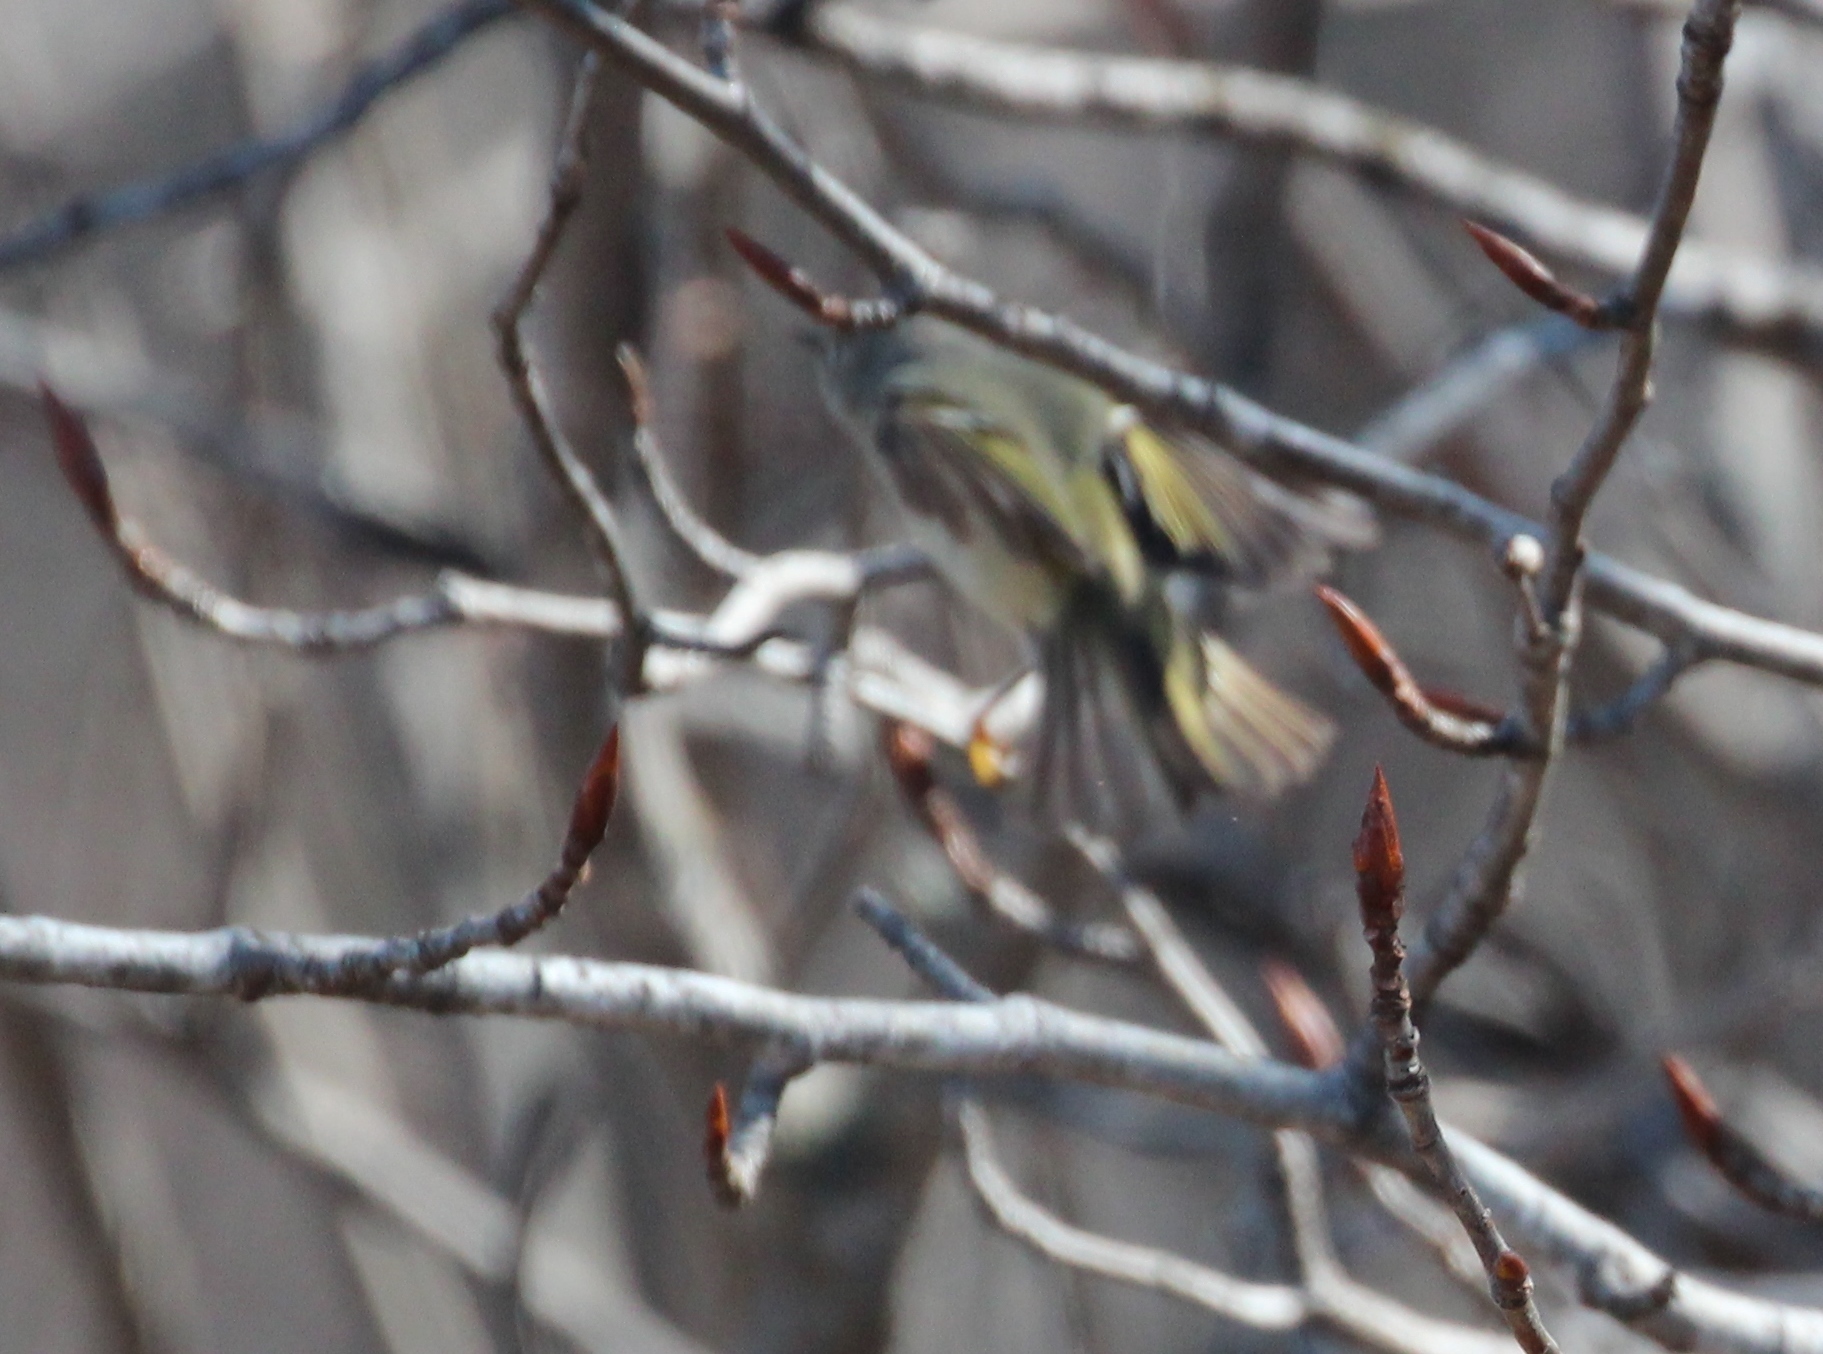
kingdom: Animalia
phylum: Chordata
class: Aves
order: Passeriformes
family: Regulidae
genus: Regulus
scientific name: Regulus calendula
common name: Ruby-crowned kinglet
